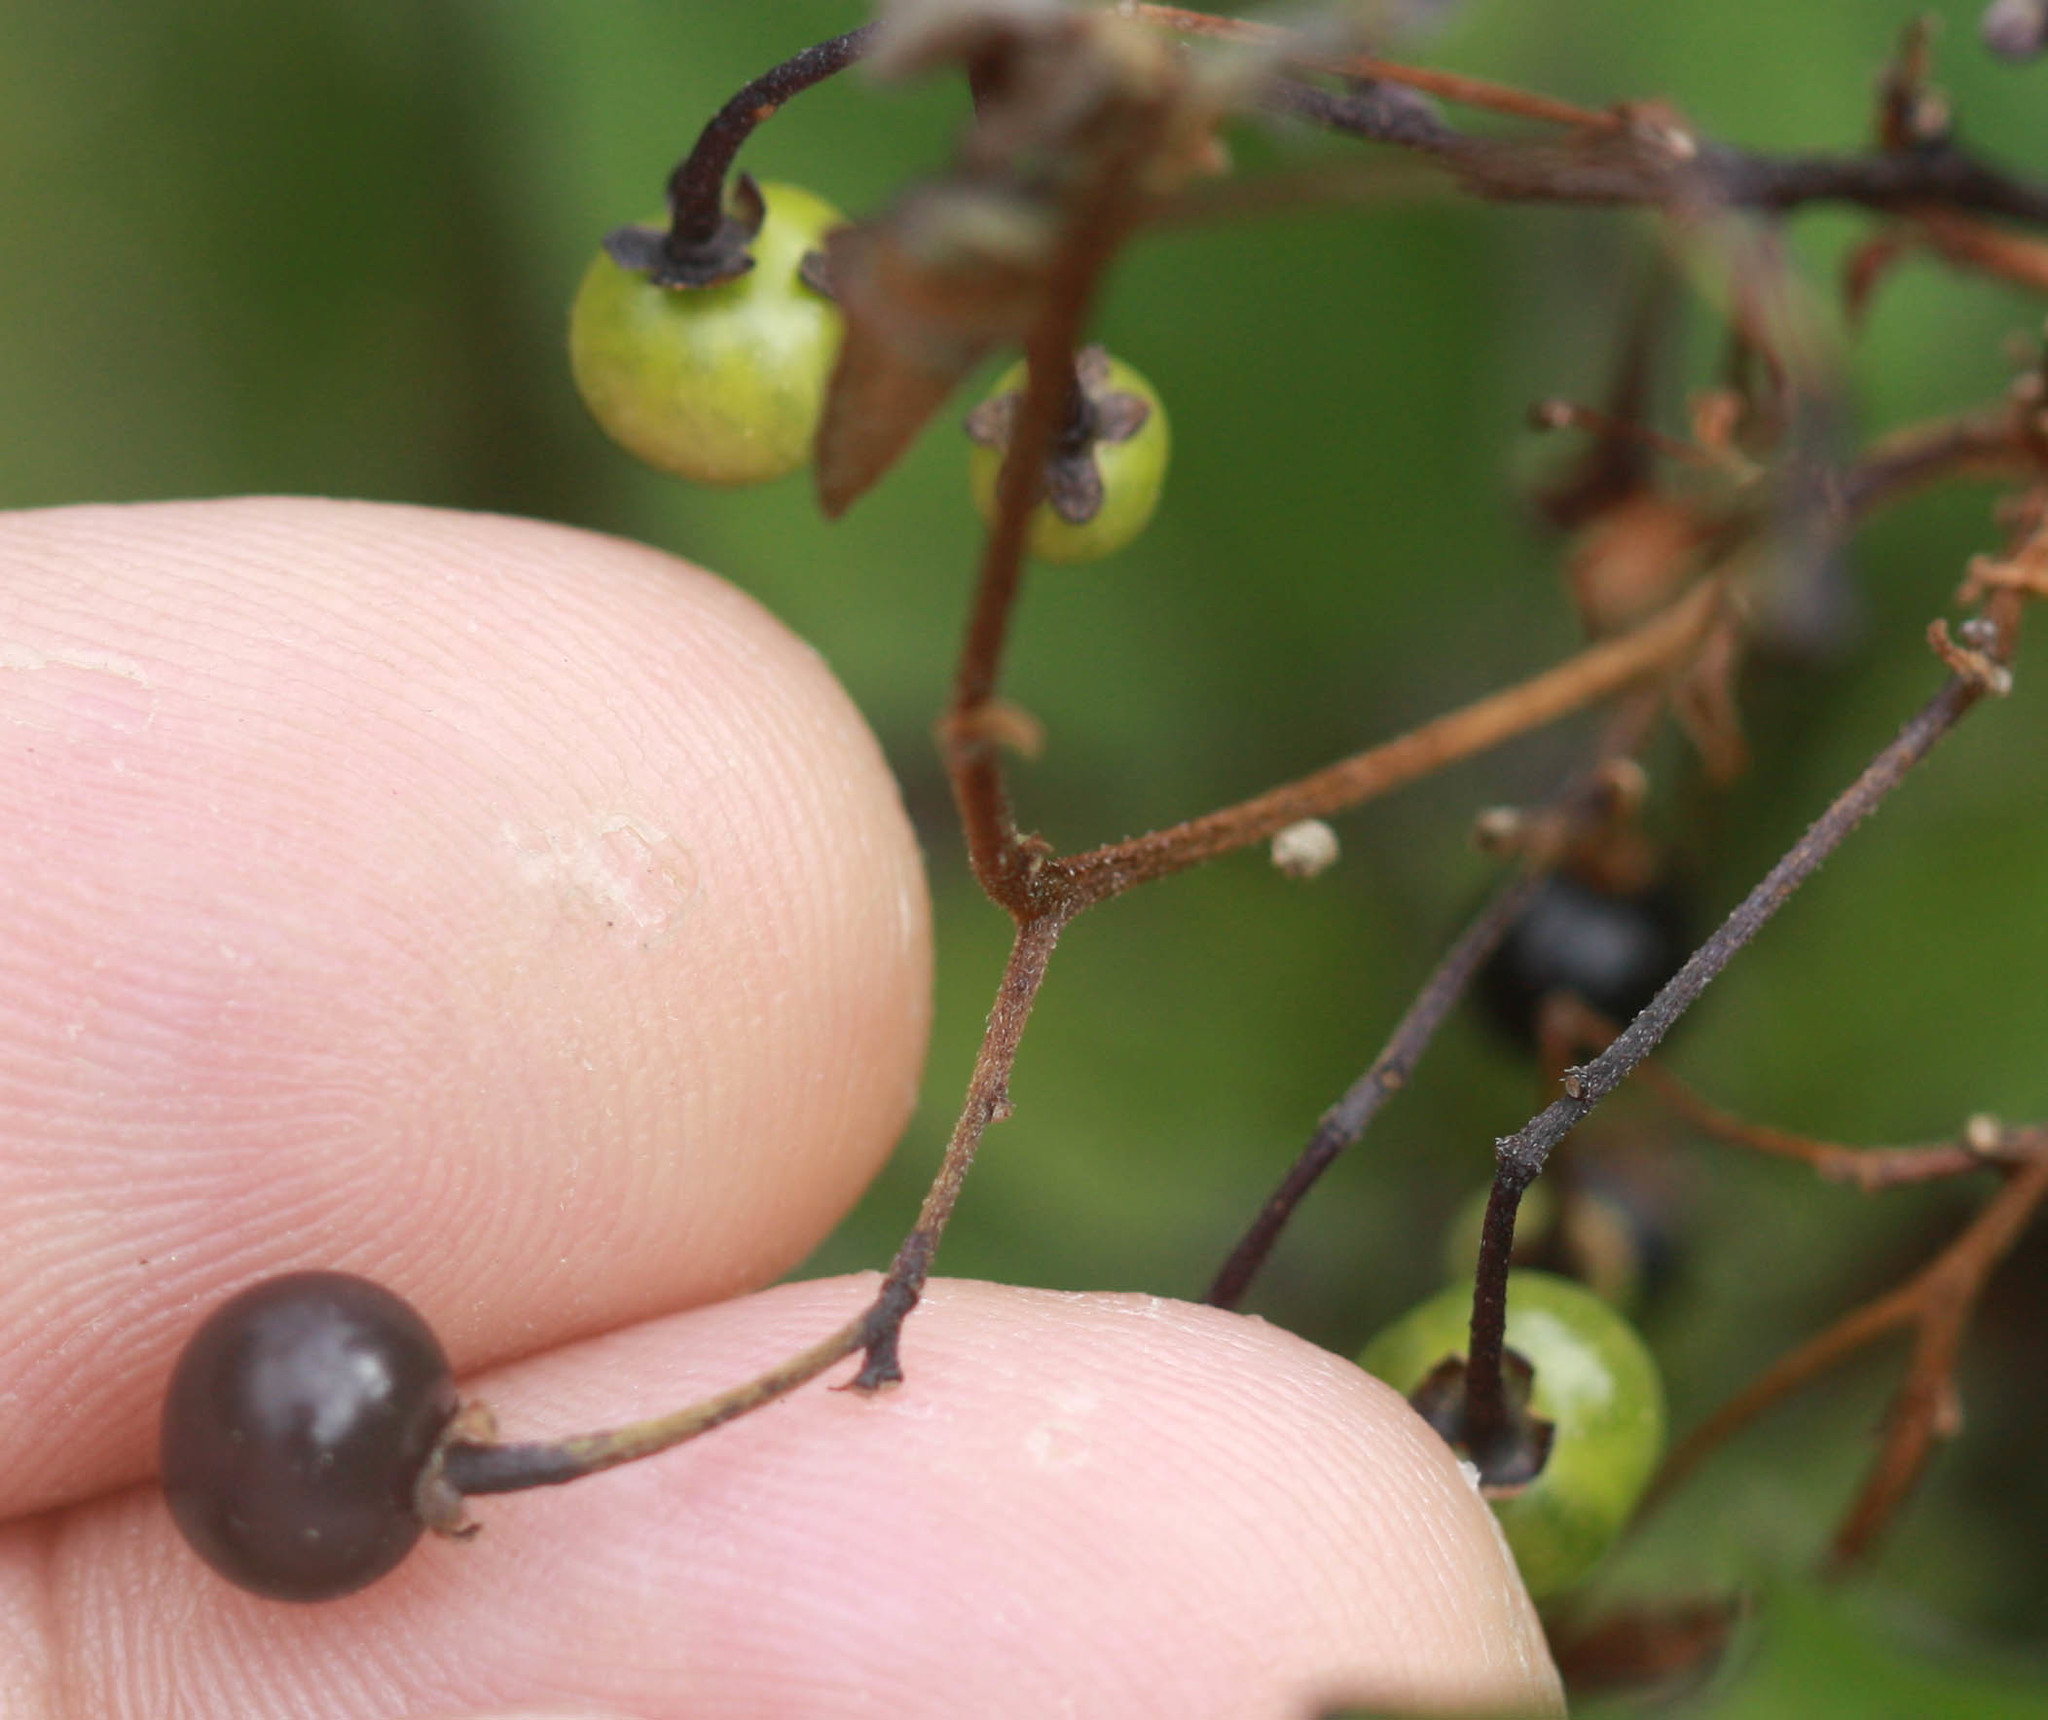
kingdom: Plantae
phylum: Tracheophyta
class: Magnoliopsida
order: Solanales
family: Solanaceae
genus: Solanum
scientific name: Solanum americanum
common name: American black nightshade
